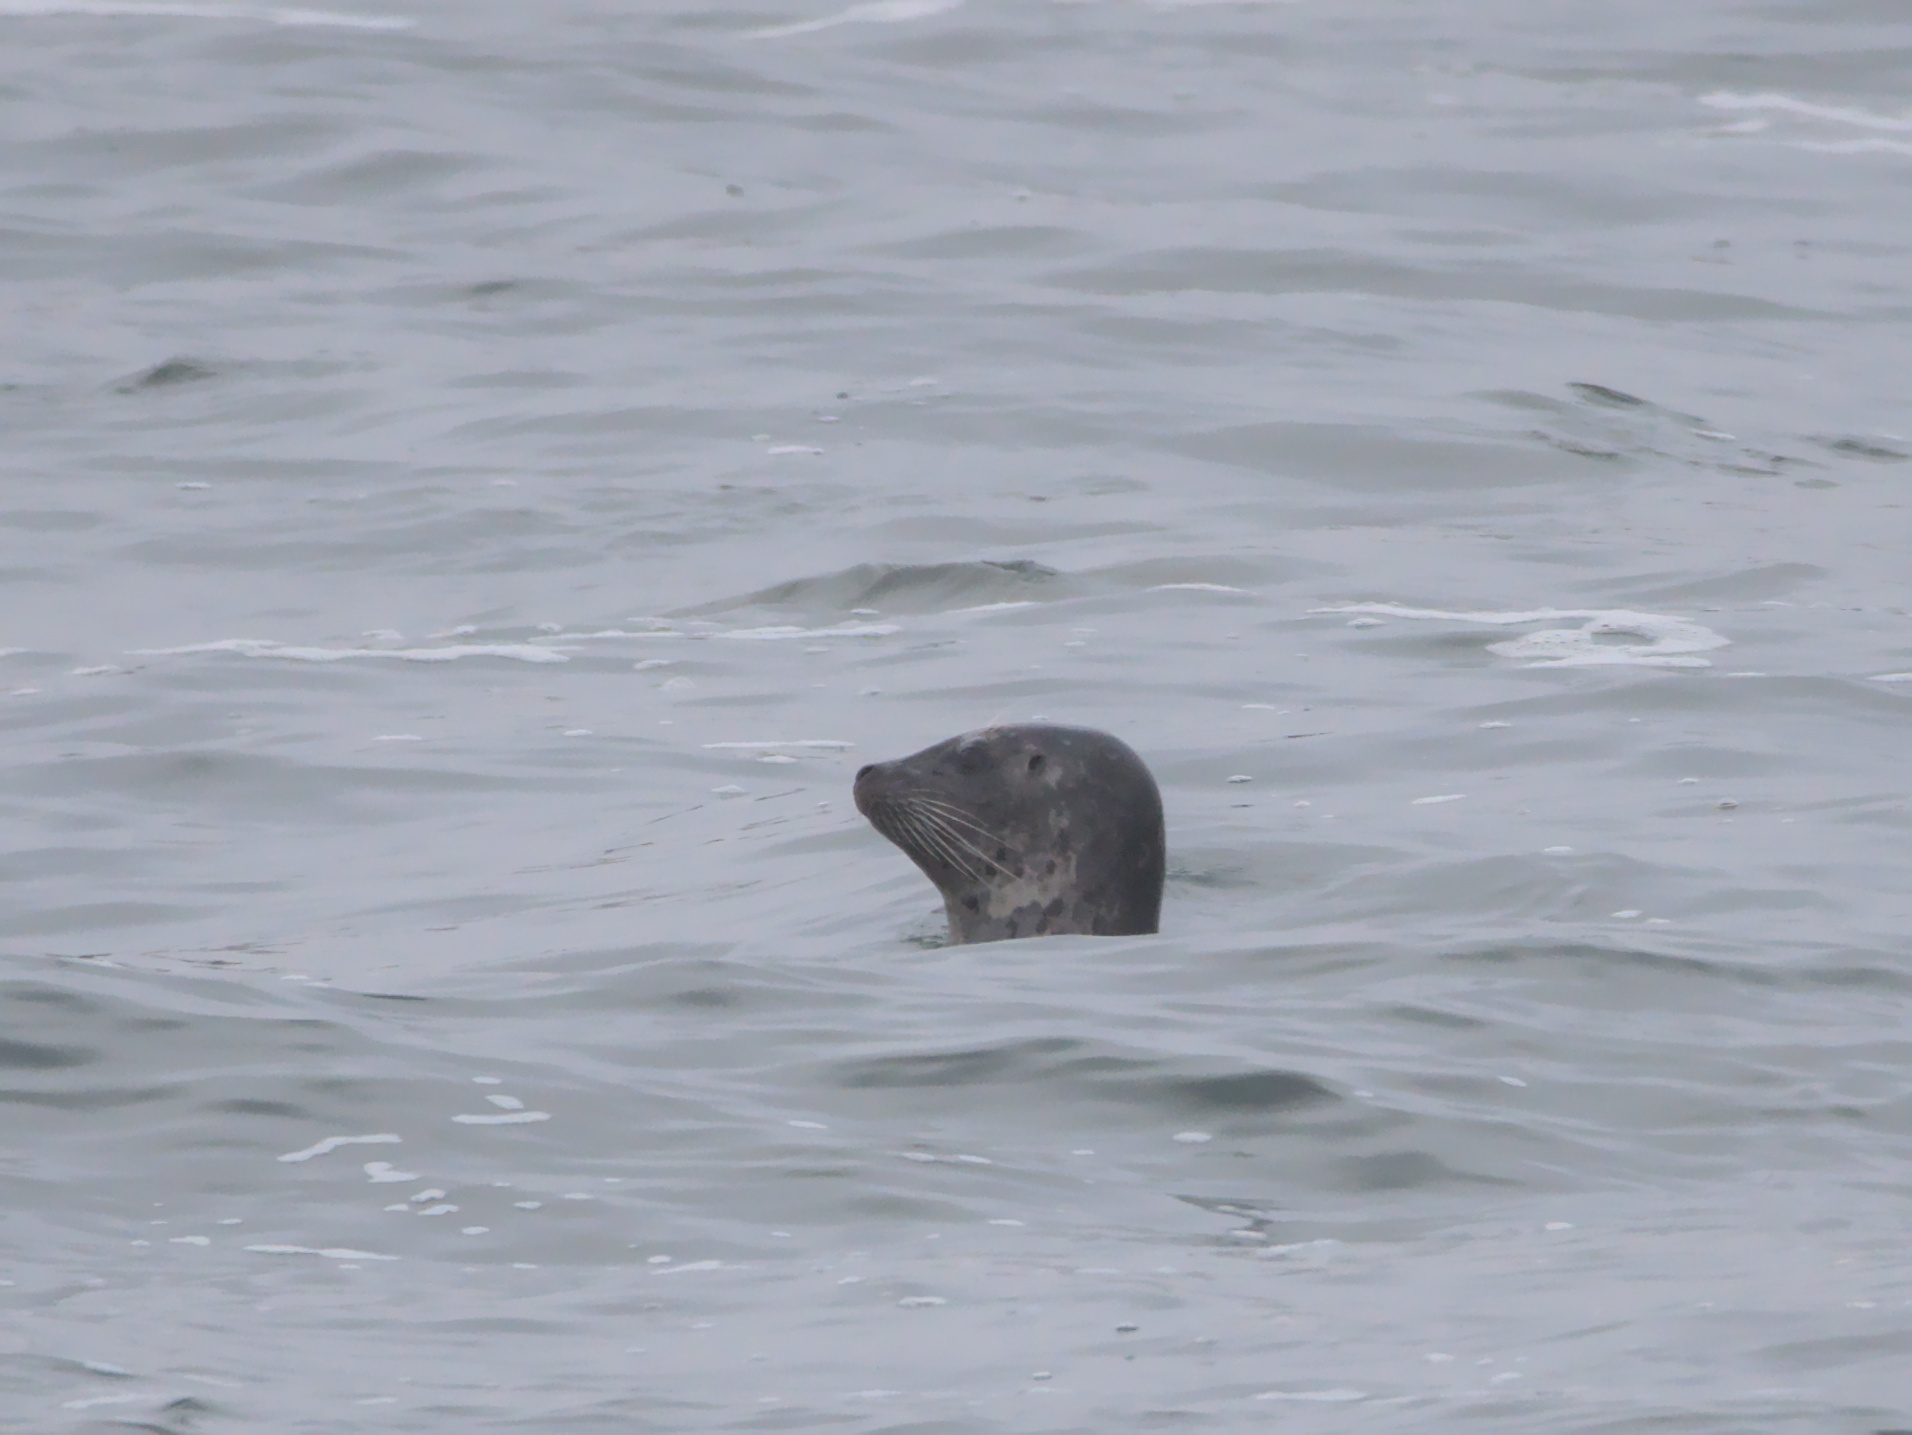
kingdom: Animalia
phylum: Chordata
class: Mammalia
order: Carnivora
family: Phocidae
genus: Phoca
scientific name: Phoca vitulina
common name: Harbor seal
